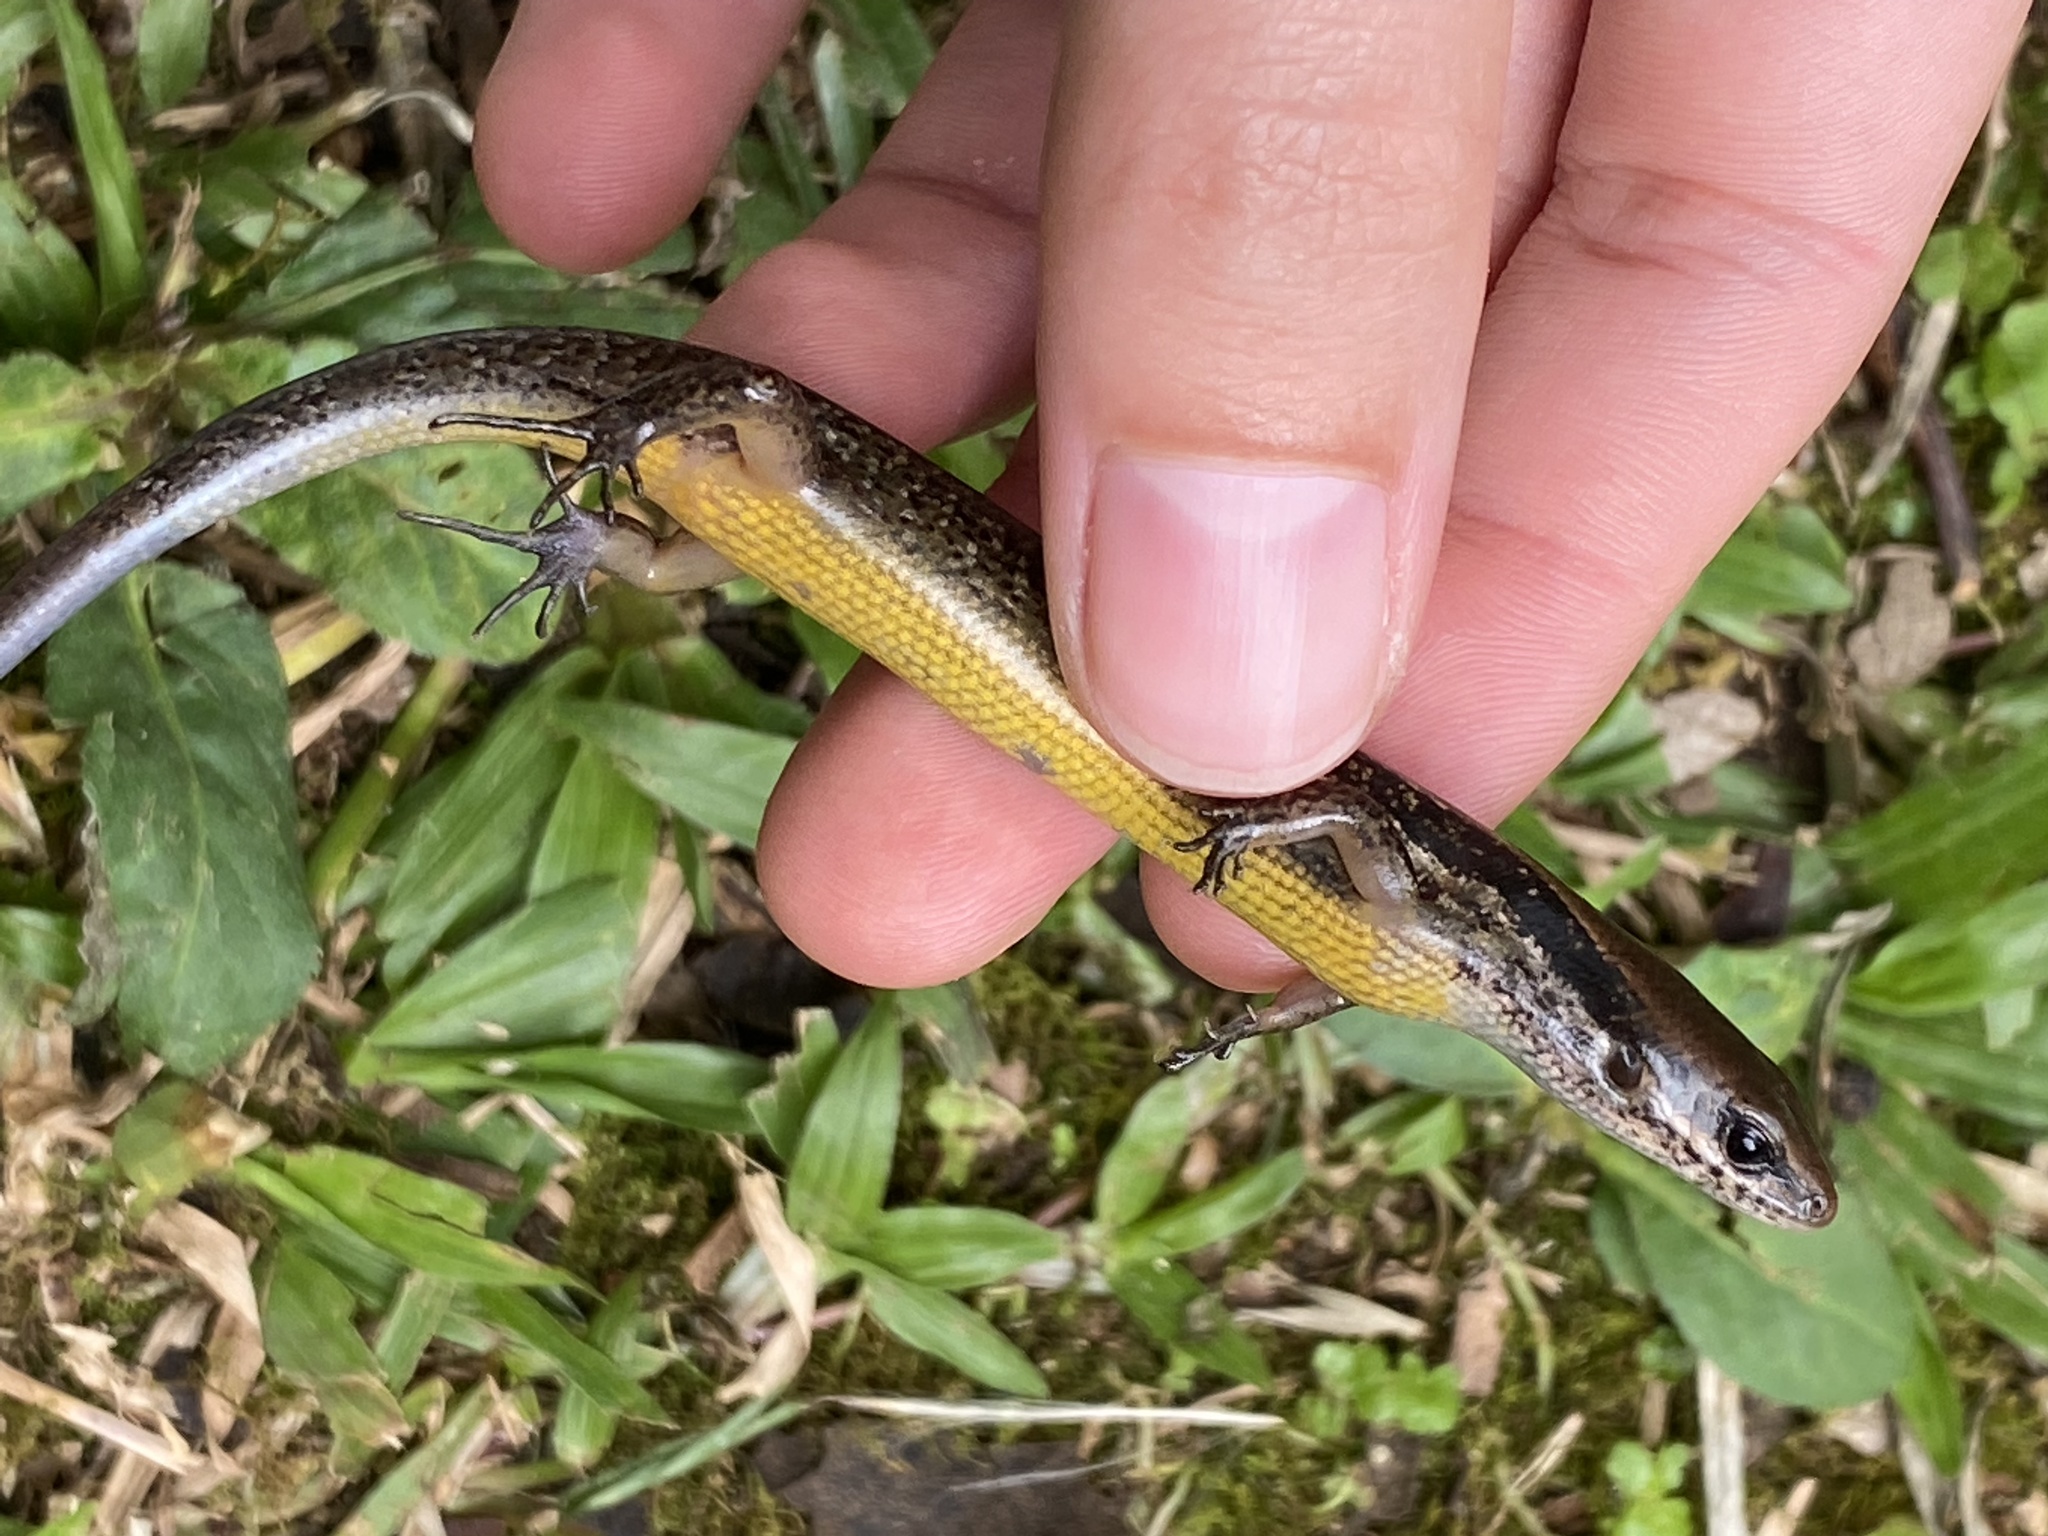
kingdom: Animalia
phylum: Chordata
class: Squamata
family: Scincidae
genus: Scincella
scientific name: Scincella cherriei
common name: Brown forest skink
